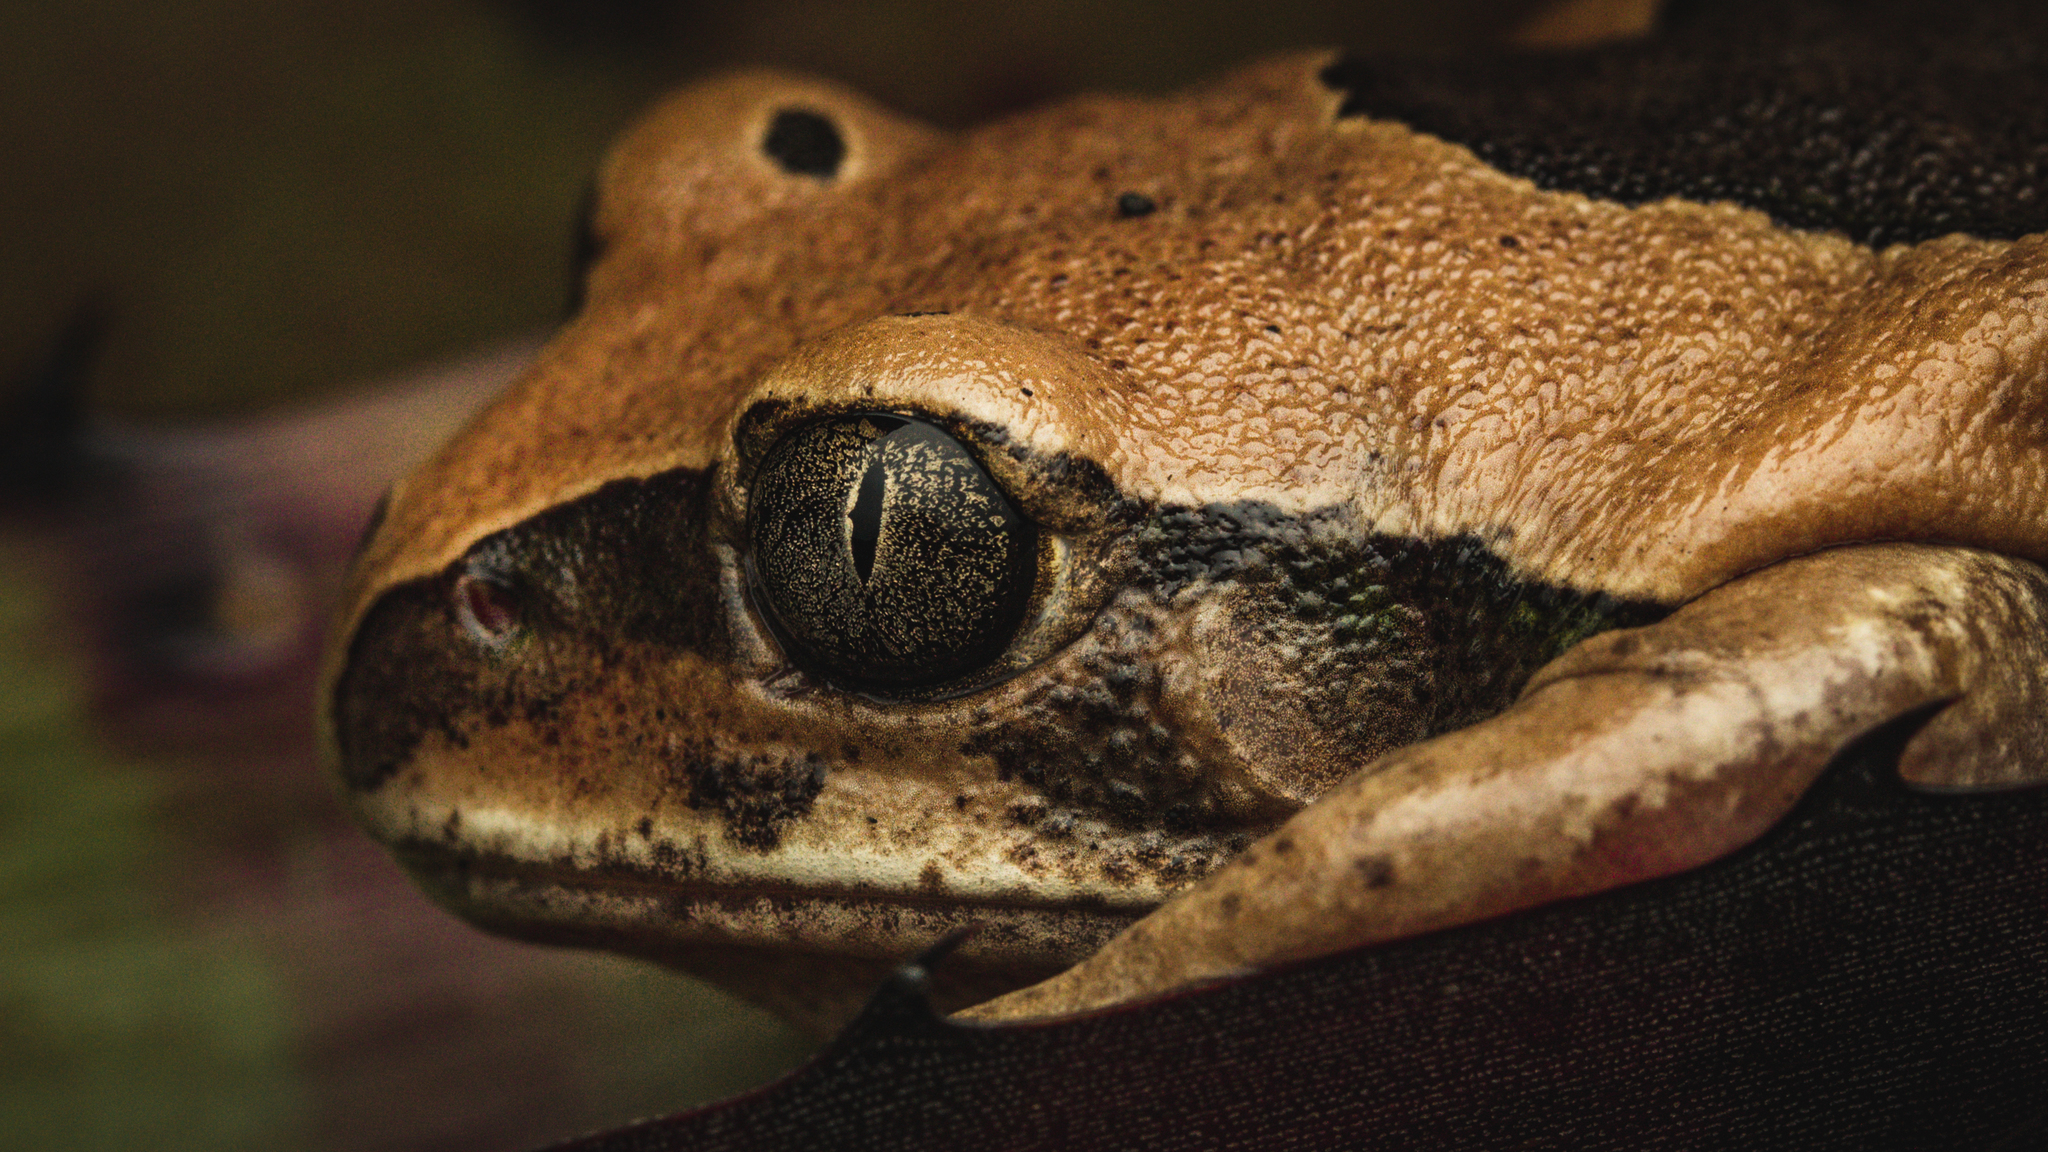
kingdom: Animalia
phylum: Chordata
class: Amphibia
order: Anura
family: Arthroleptidae
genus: Leptopelis
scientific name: Leptopelis mossambicus
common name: Mozambique tree frog
